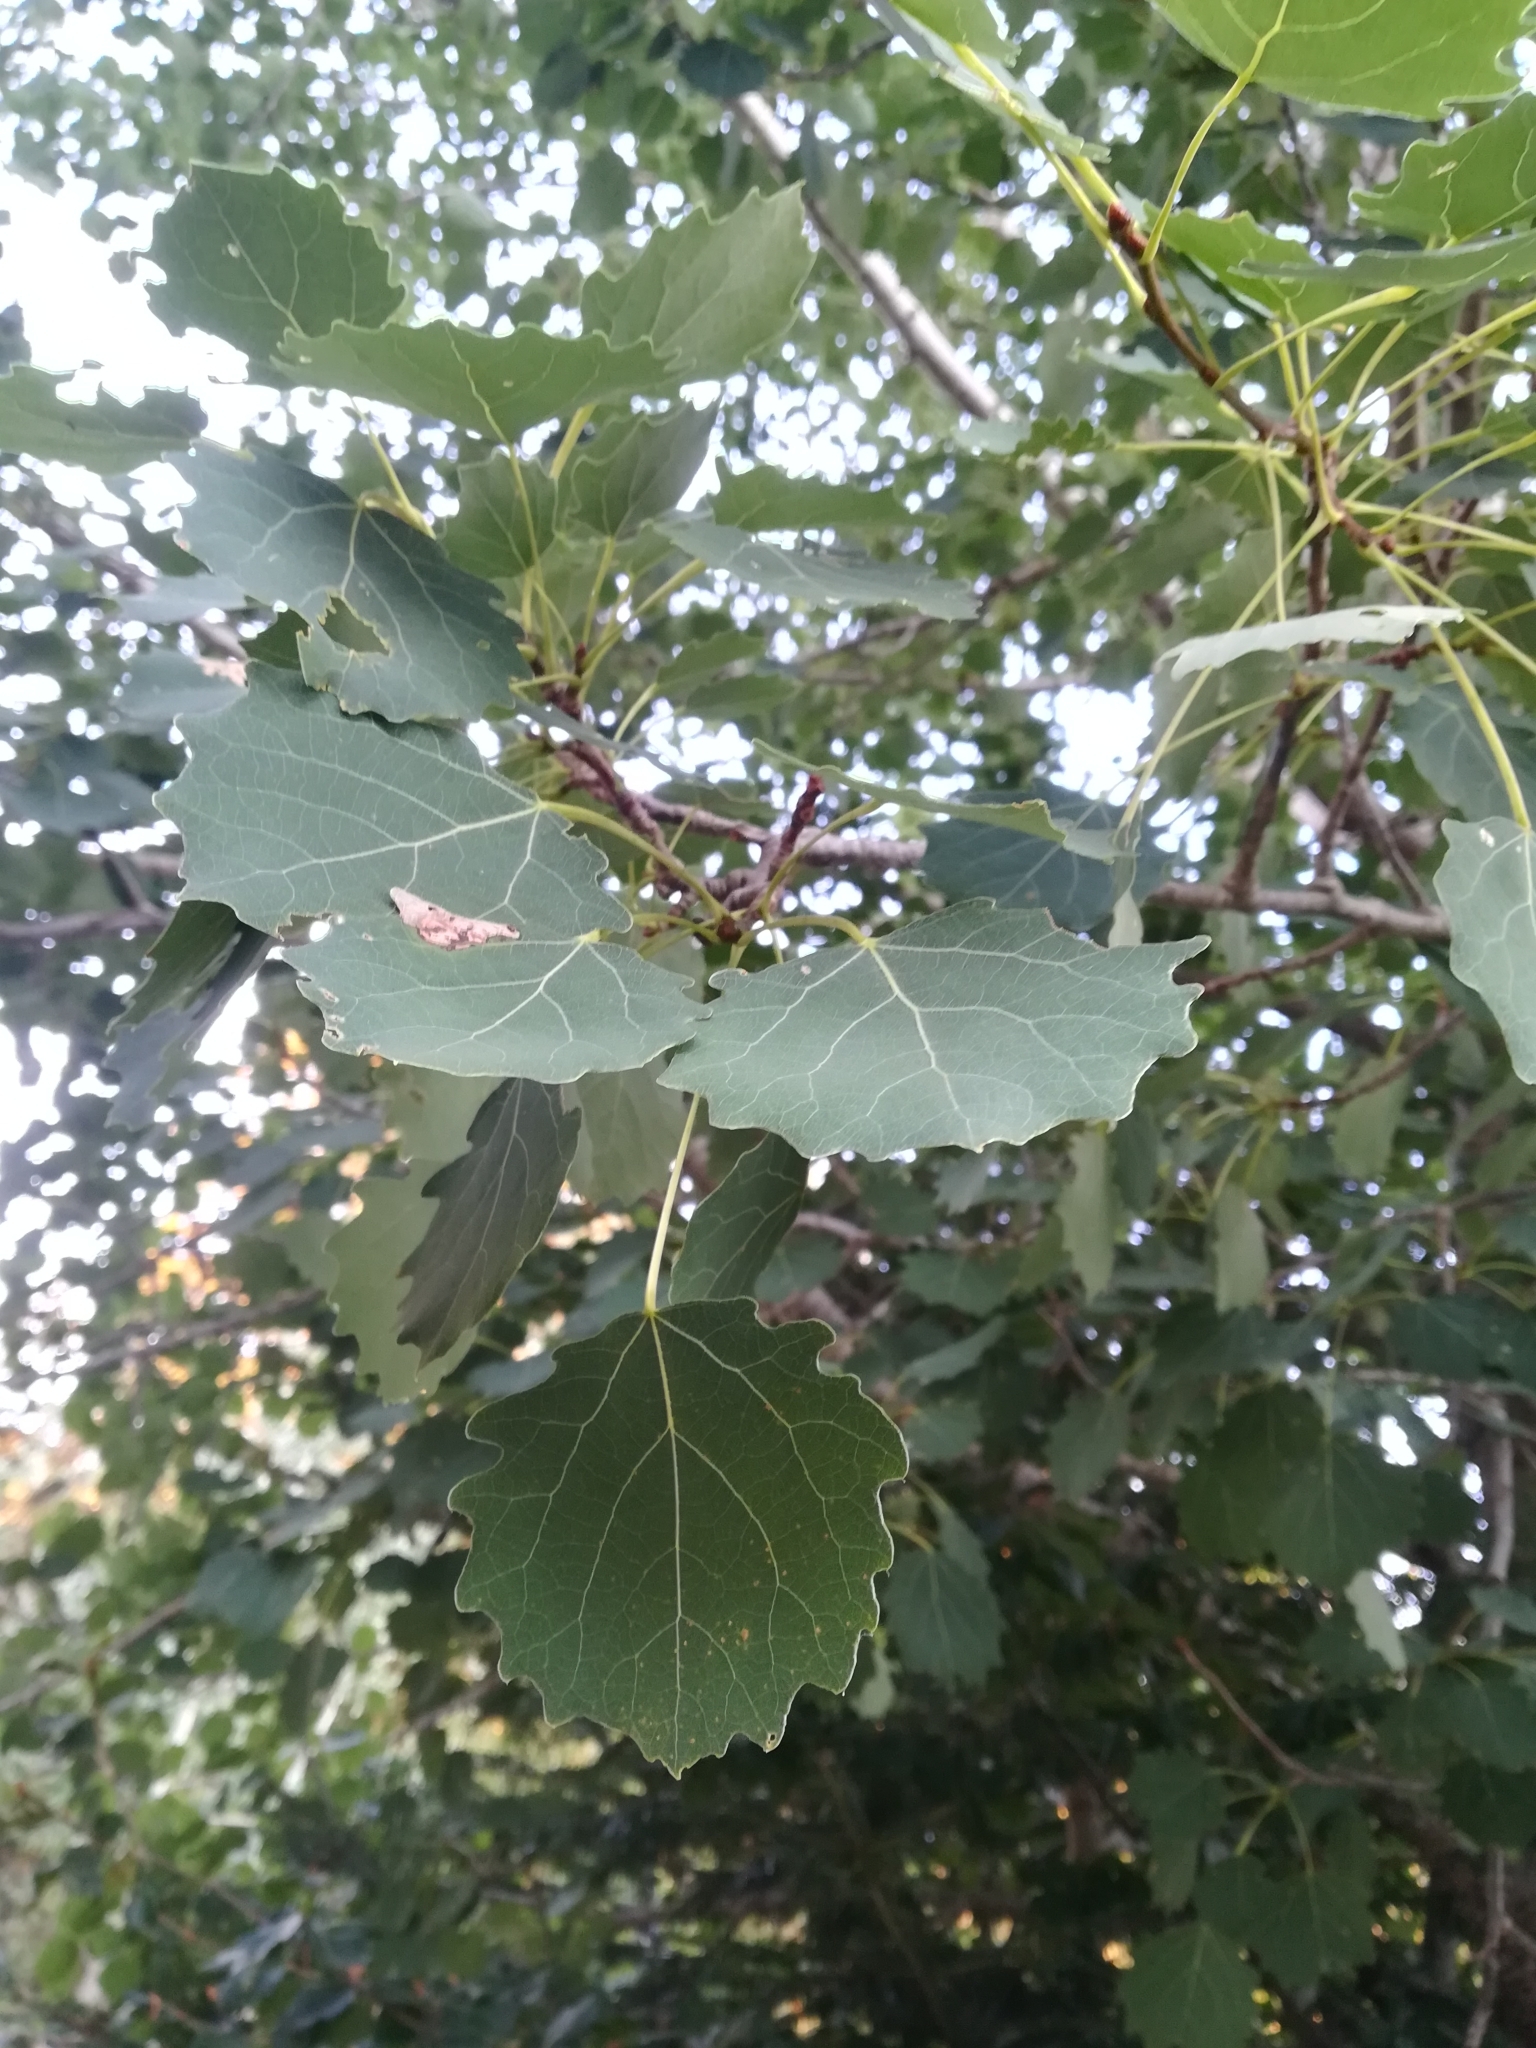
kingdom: Plantae
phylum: Tracheophyta
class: Magnoliopsida
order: Malpighiales
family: Salicaceae
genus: Populus
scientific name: Populus tremula
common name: European aspen
